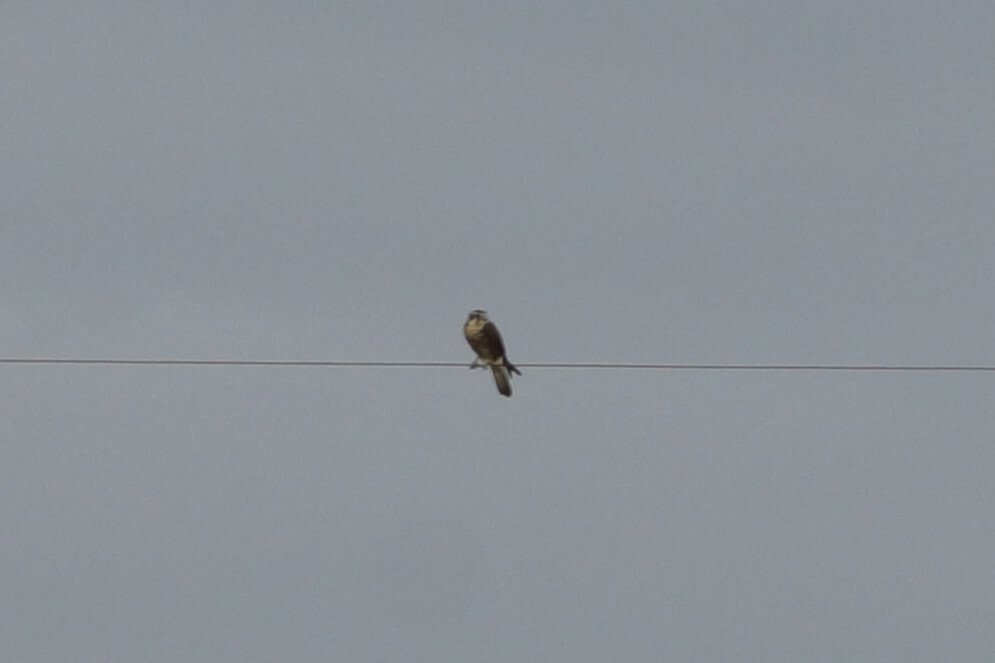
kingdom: Animalia
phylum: Chordata
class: Aves
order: Falconiformes
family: Falconidae
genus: Falco
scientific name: Falco berigora
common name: Brown falcon
